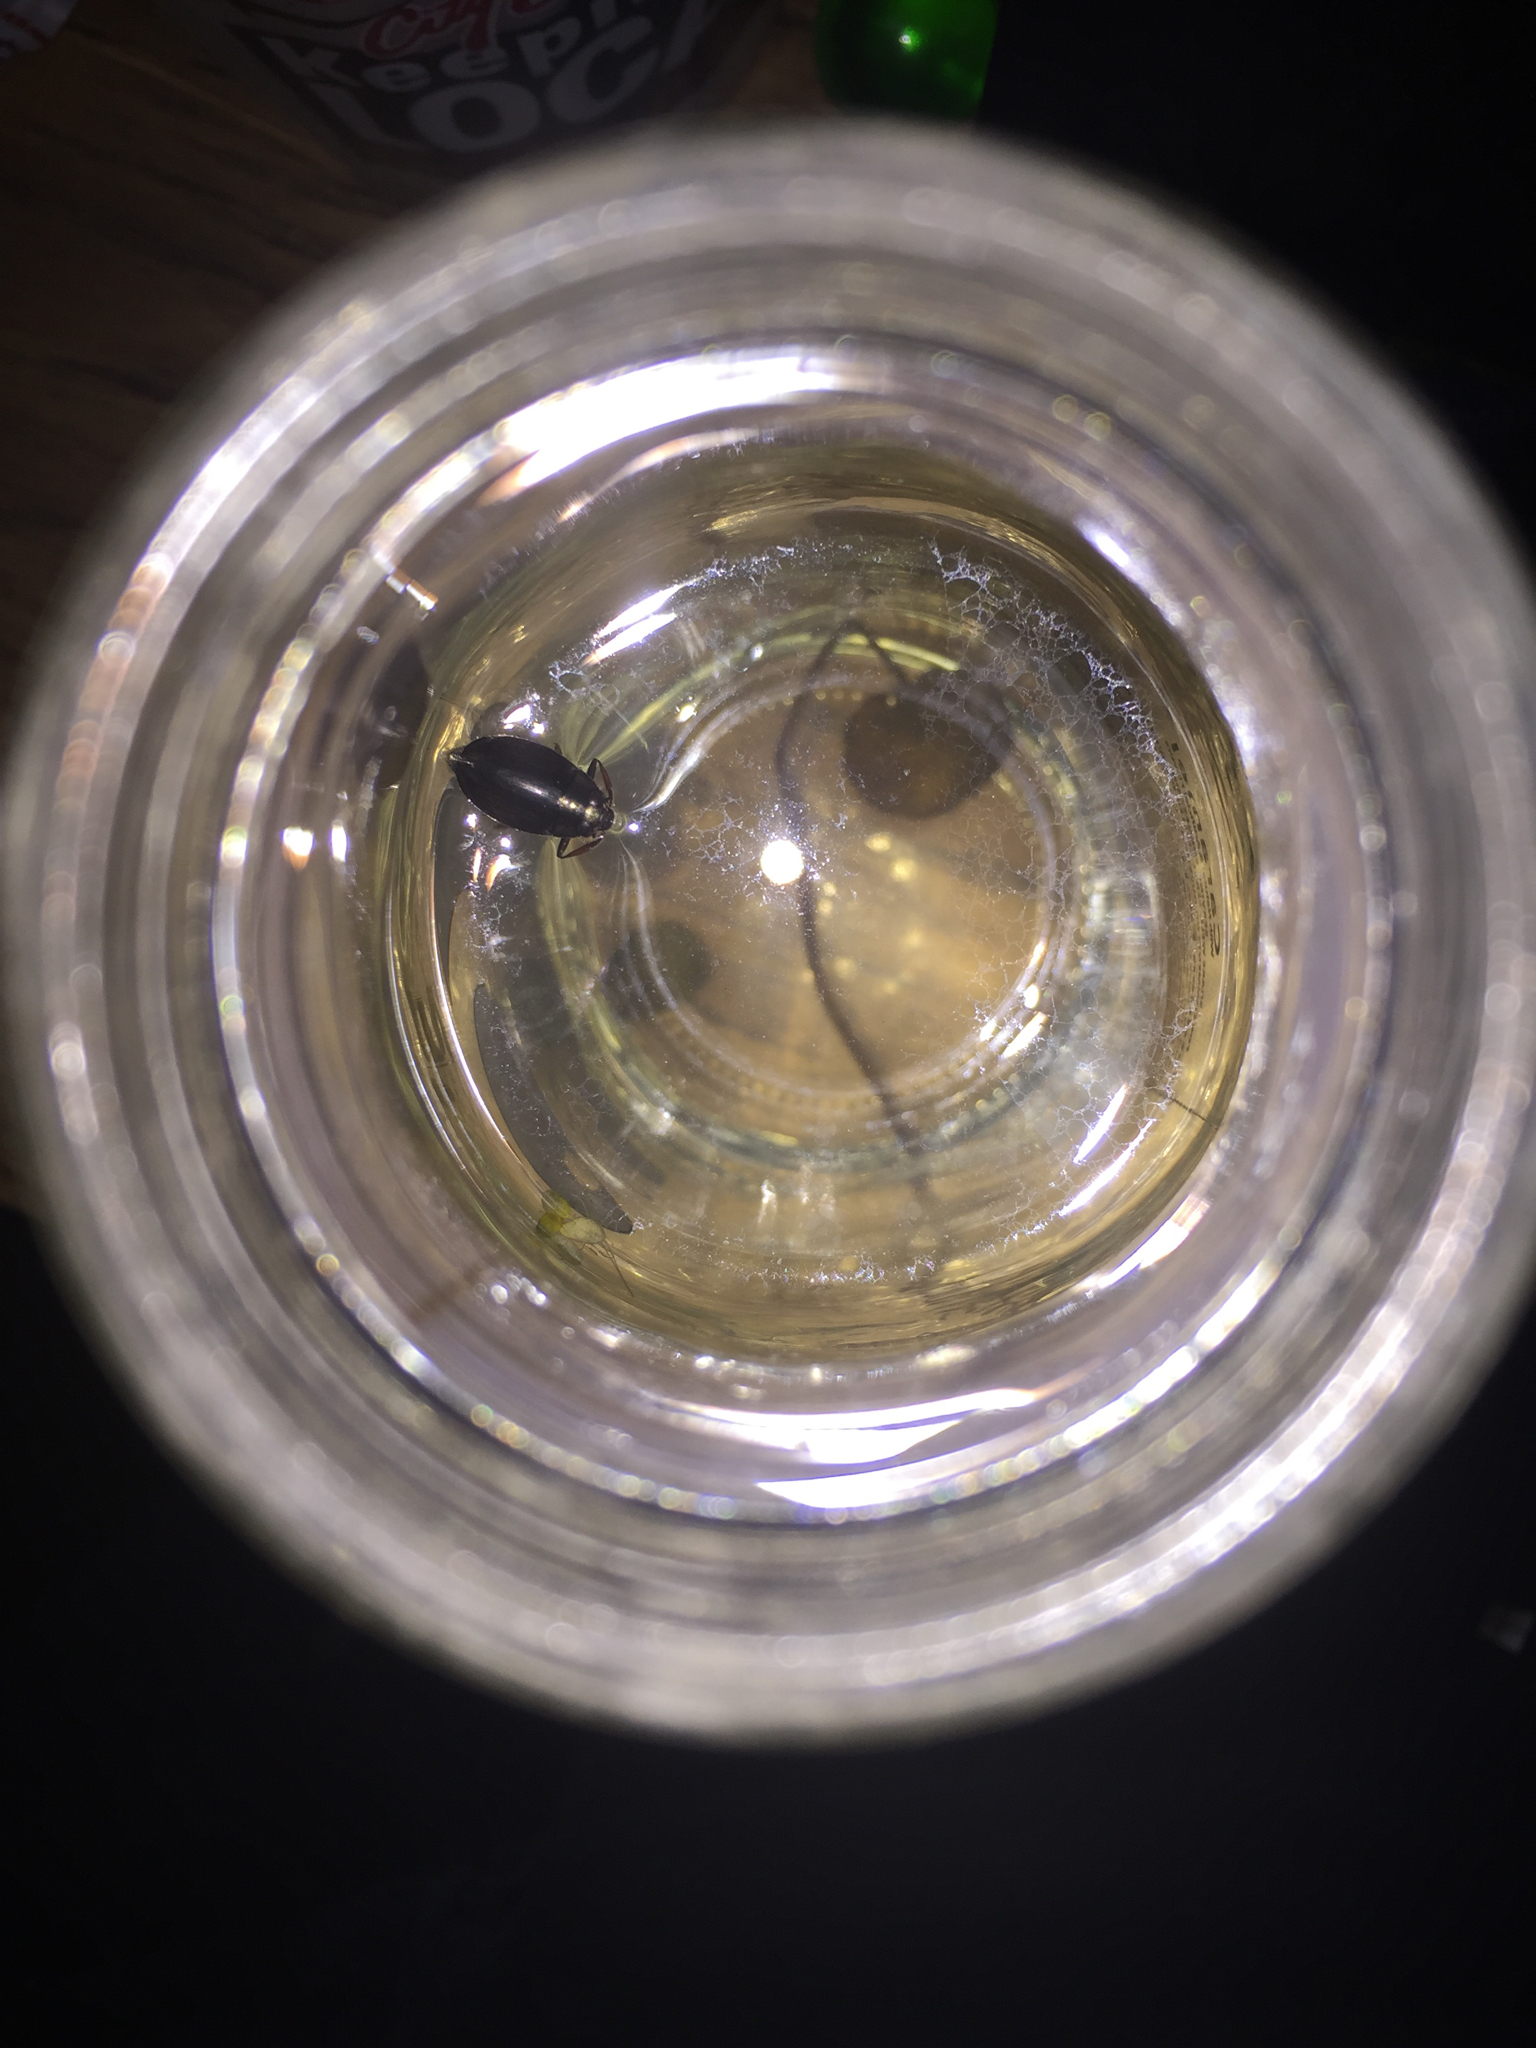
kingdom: Animalia
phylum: Arthropoda
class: Insecta
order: Coleoptera
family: Gyrinidae
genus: Dineutus
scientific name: Dineutus
